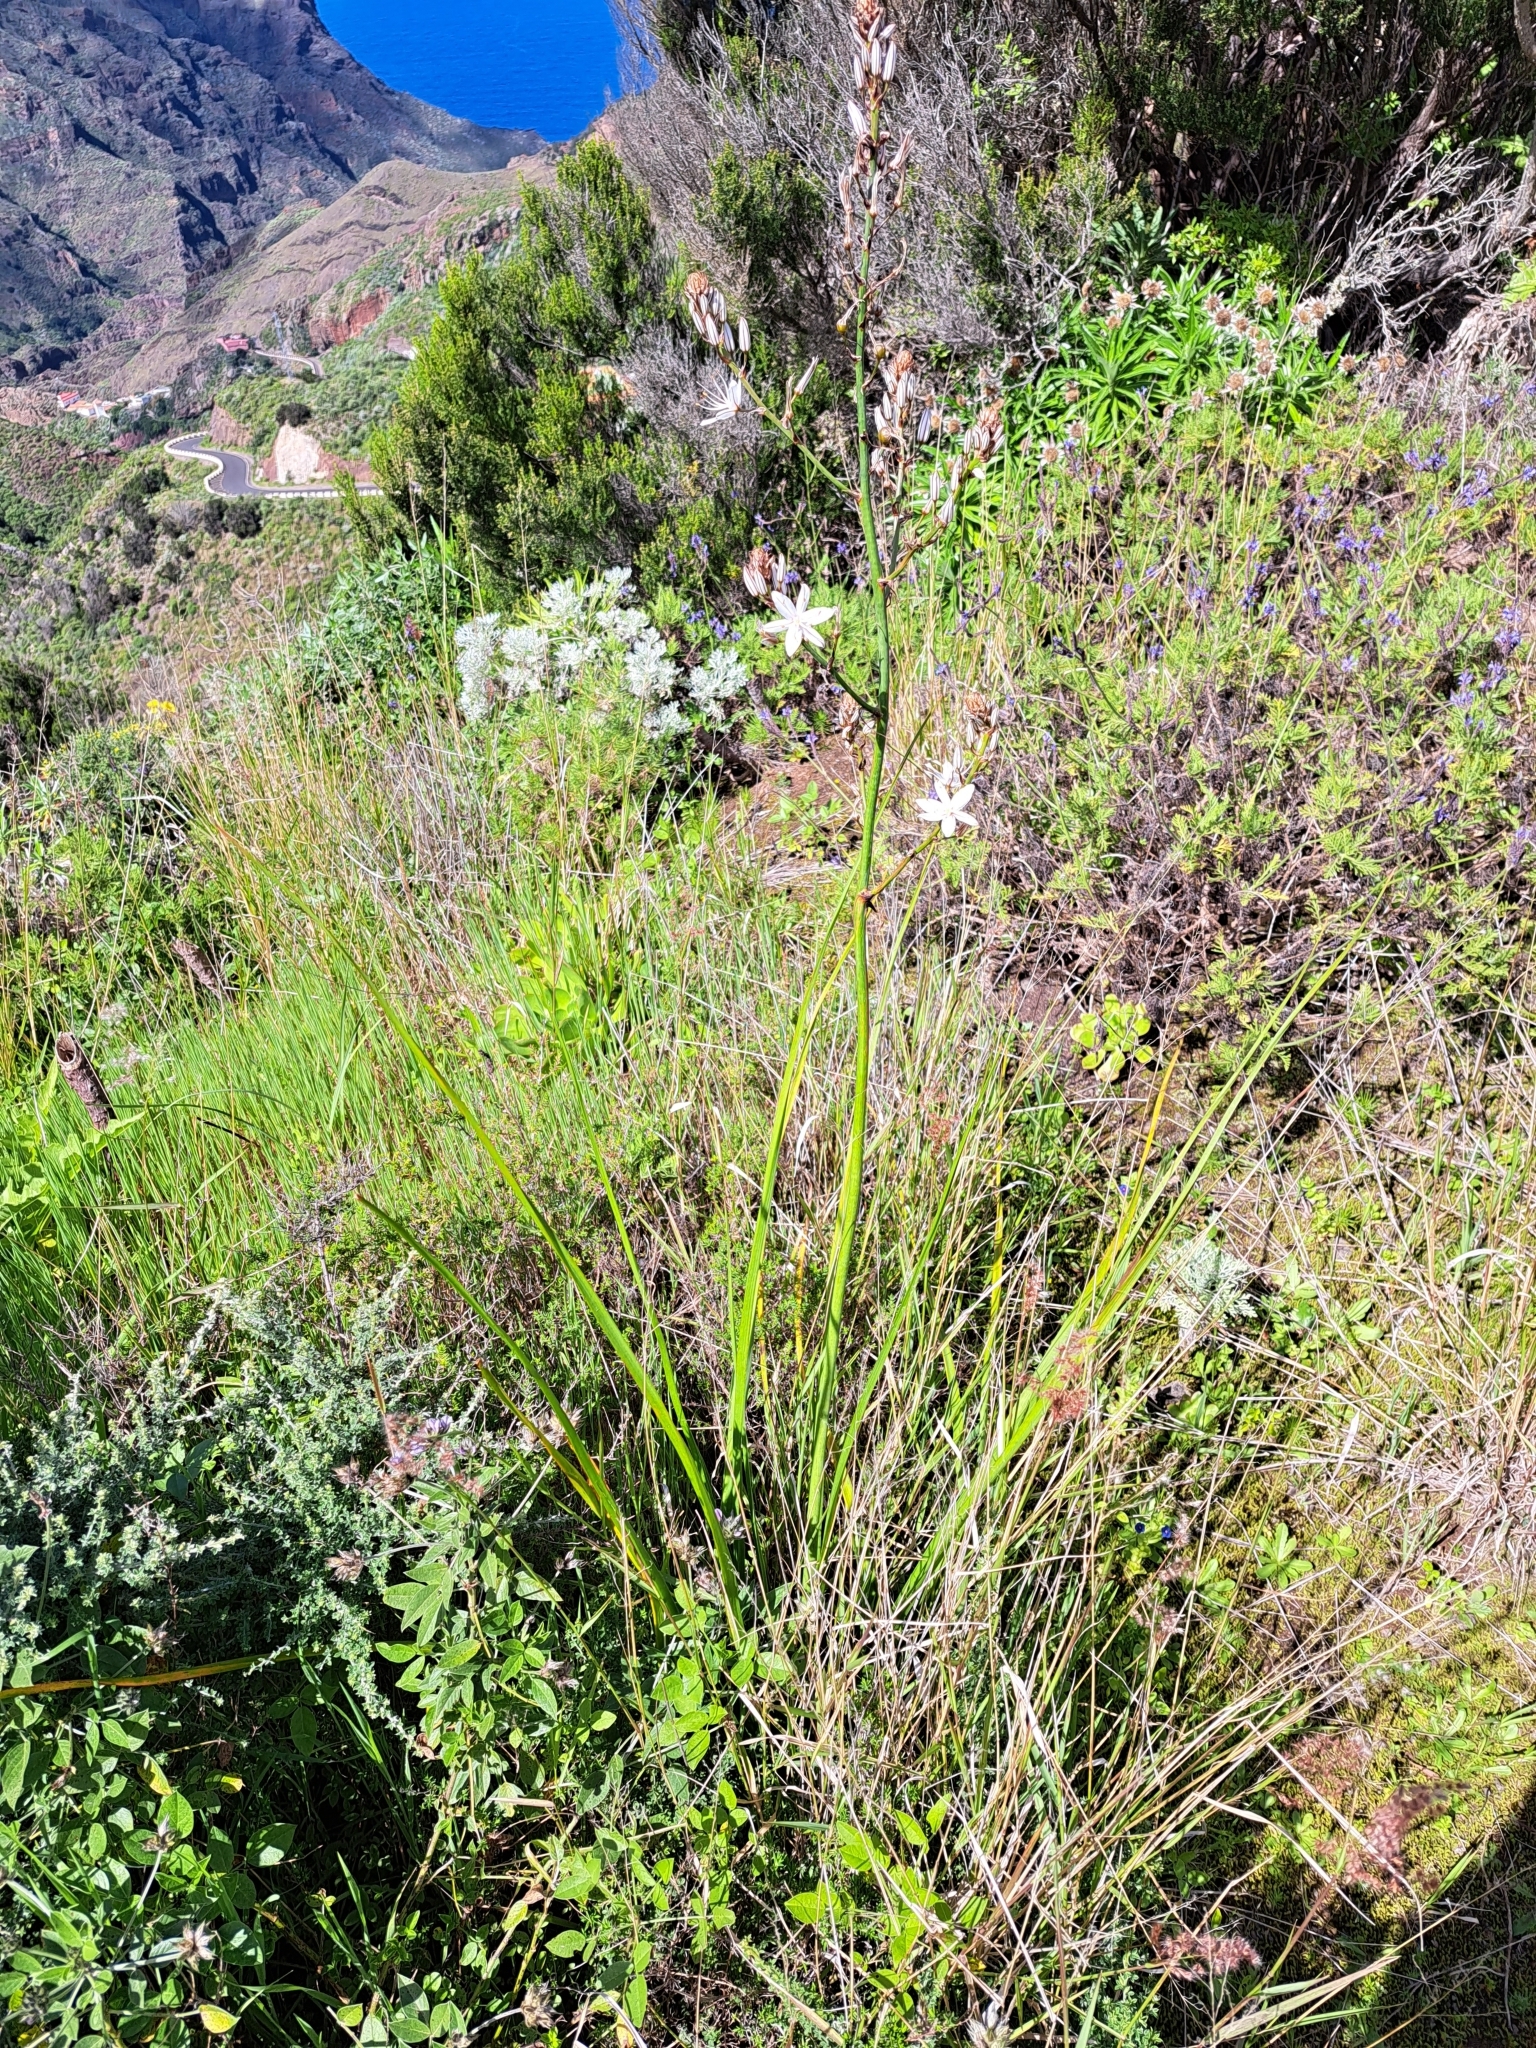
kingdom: Plantae
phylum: Tracheophyta
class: Liliopsida
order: Asparagales
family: Asphodelaceae
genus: Asphodelus
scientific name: Asphodelus ramosus
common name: Silverrod
